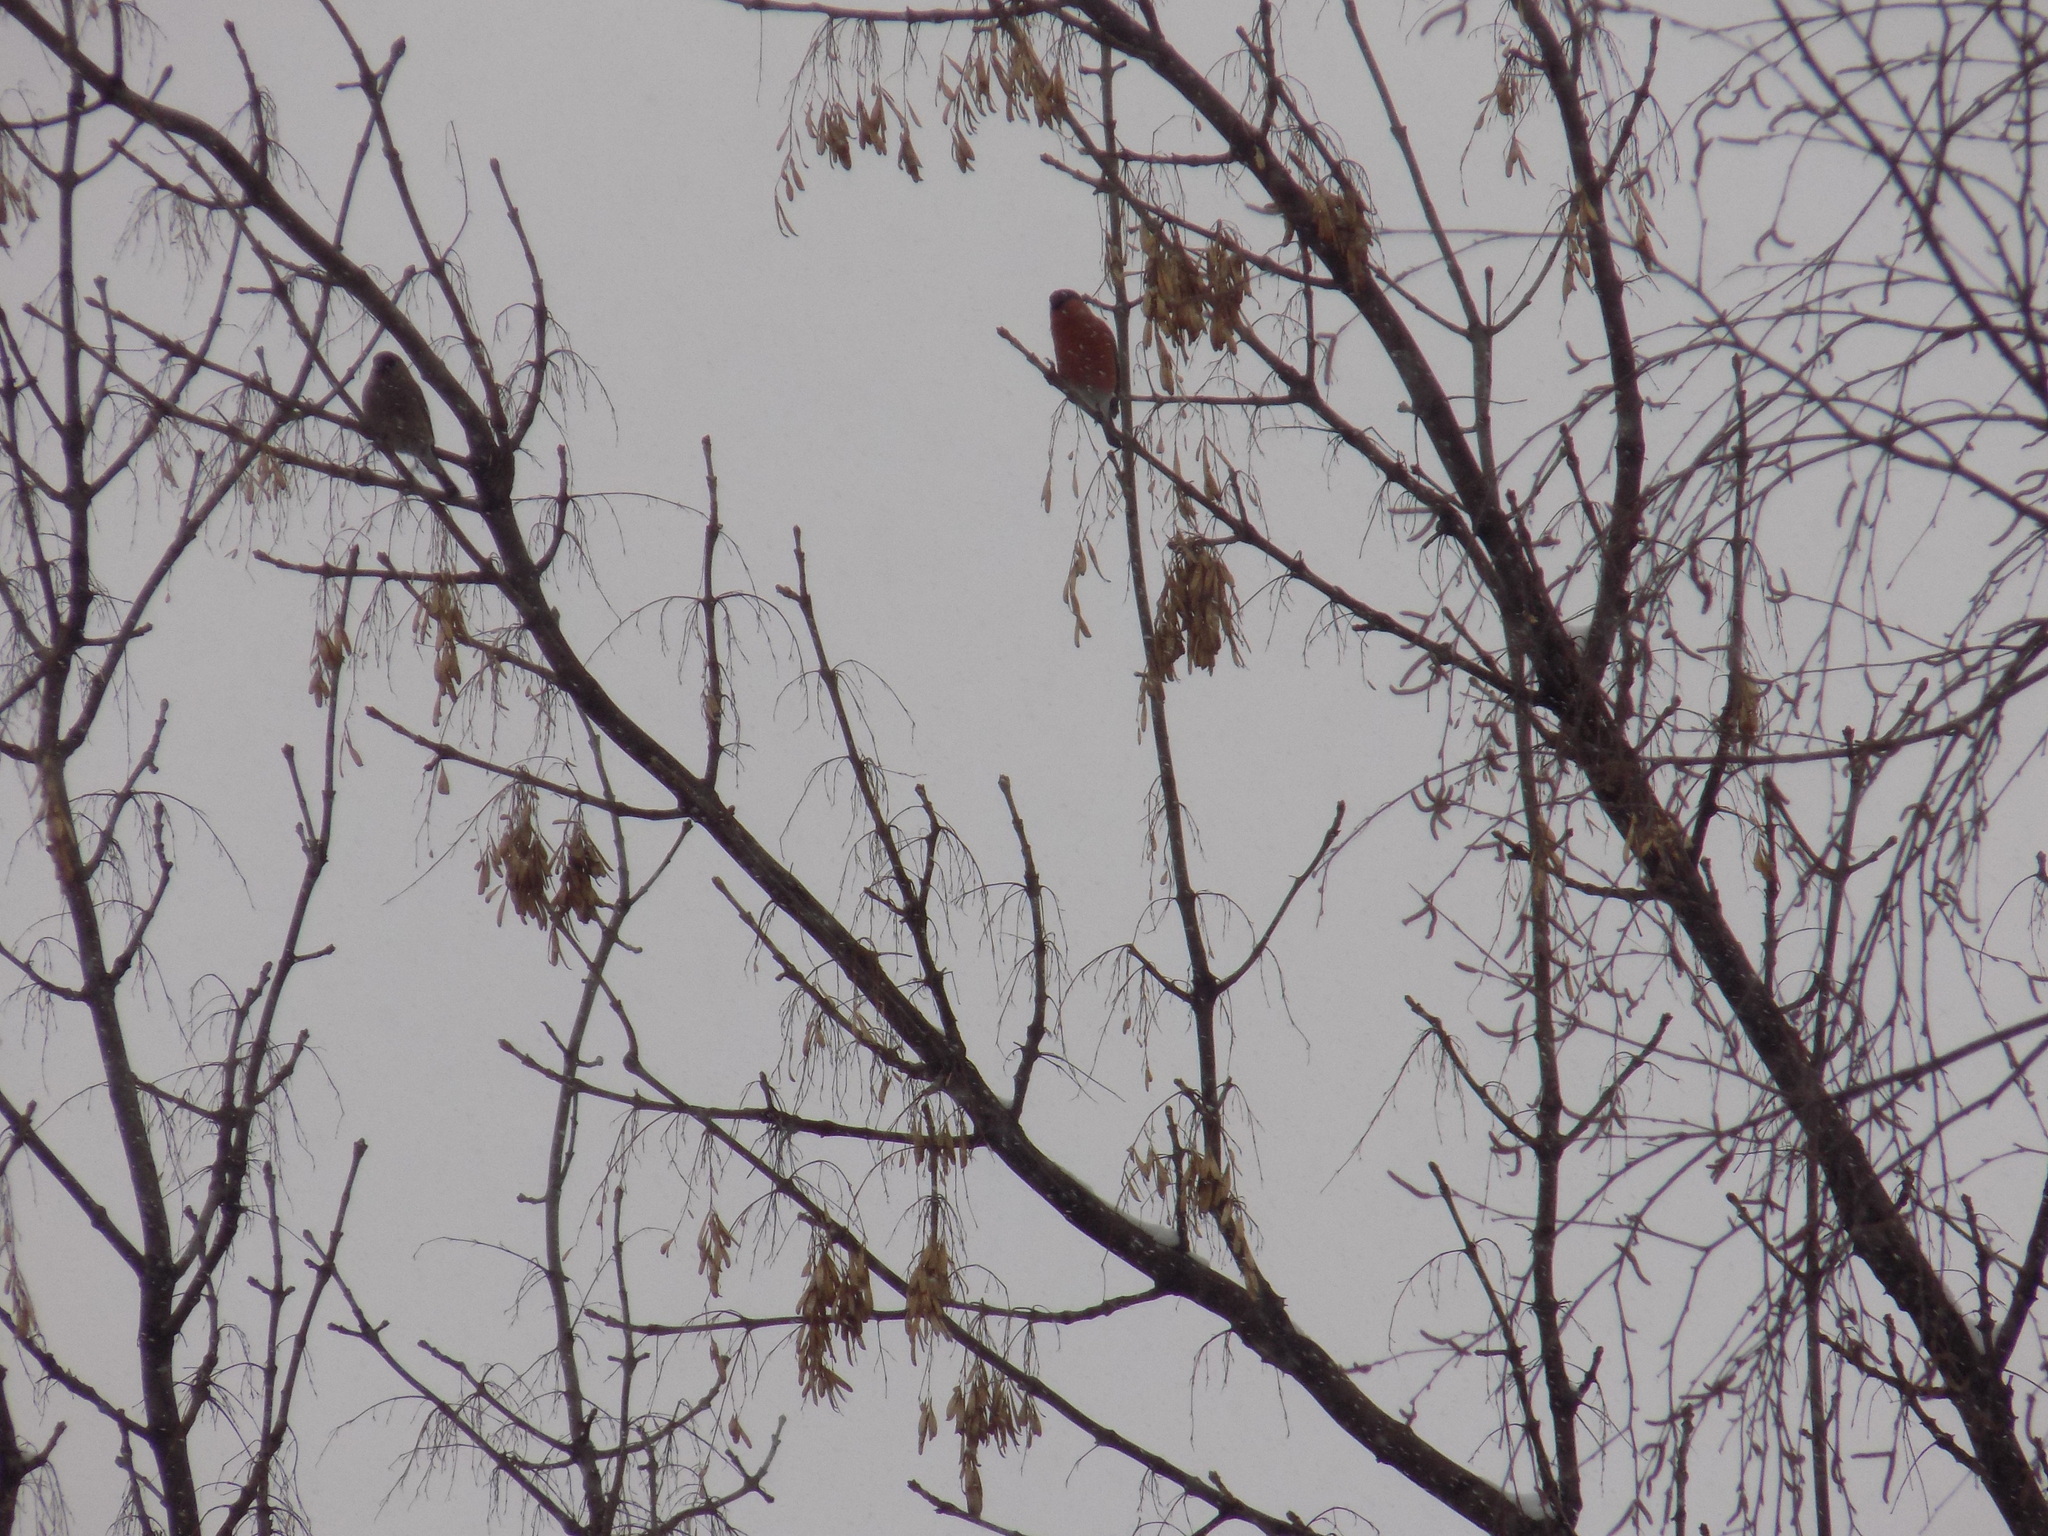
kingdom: Animalia
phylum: Chordata
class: Aves
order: Passeriformes
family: Fringillidae
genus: Pyrrhula
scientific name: Pyrrhula pyrrhula
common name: Eurasian bullfinch
